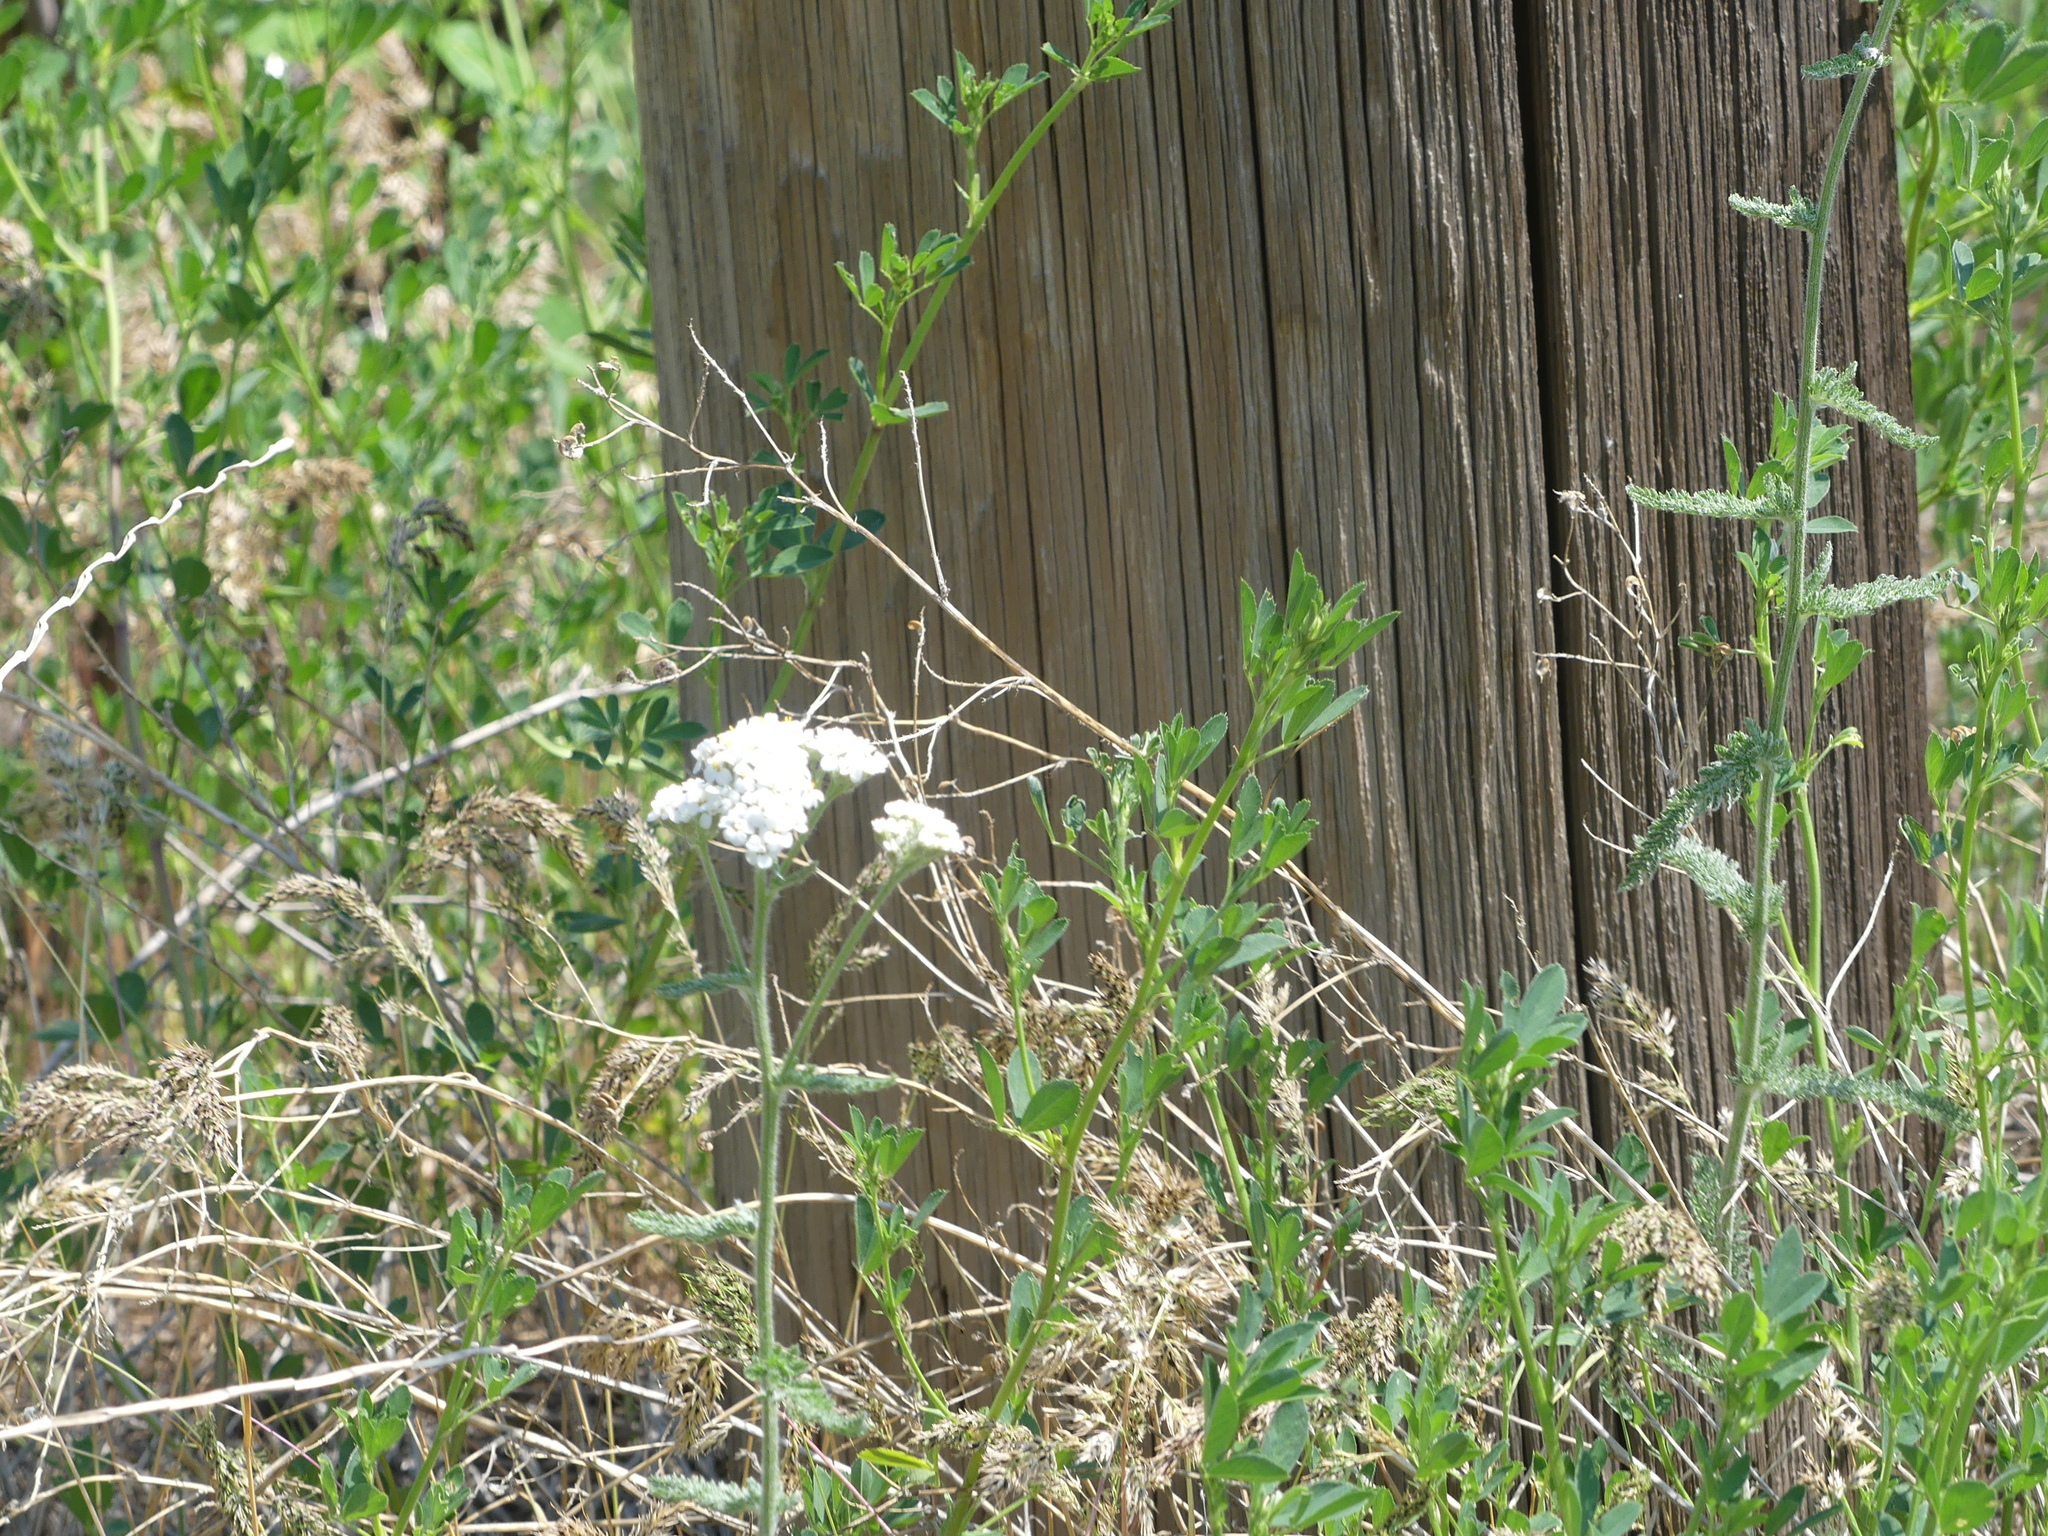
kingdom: Plantae
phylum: Tracheophyta
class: Magnoliopsida
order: Asterales
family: Asteraceae
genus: Achillea
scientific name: Achillea millefolium
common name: Yarrow
